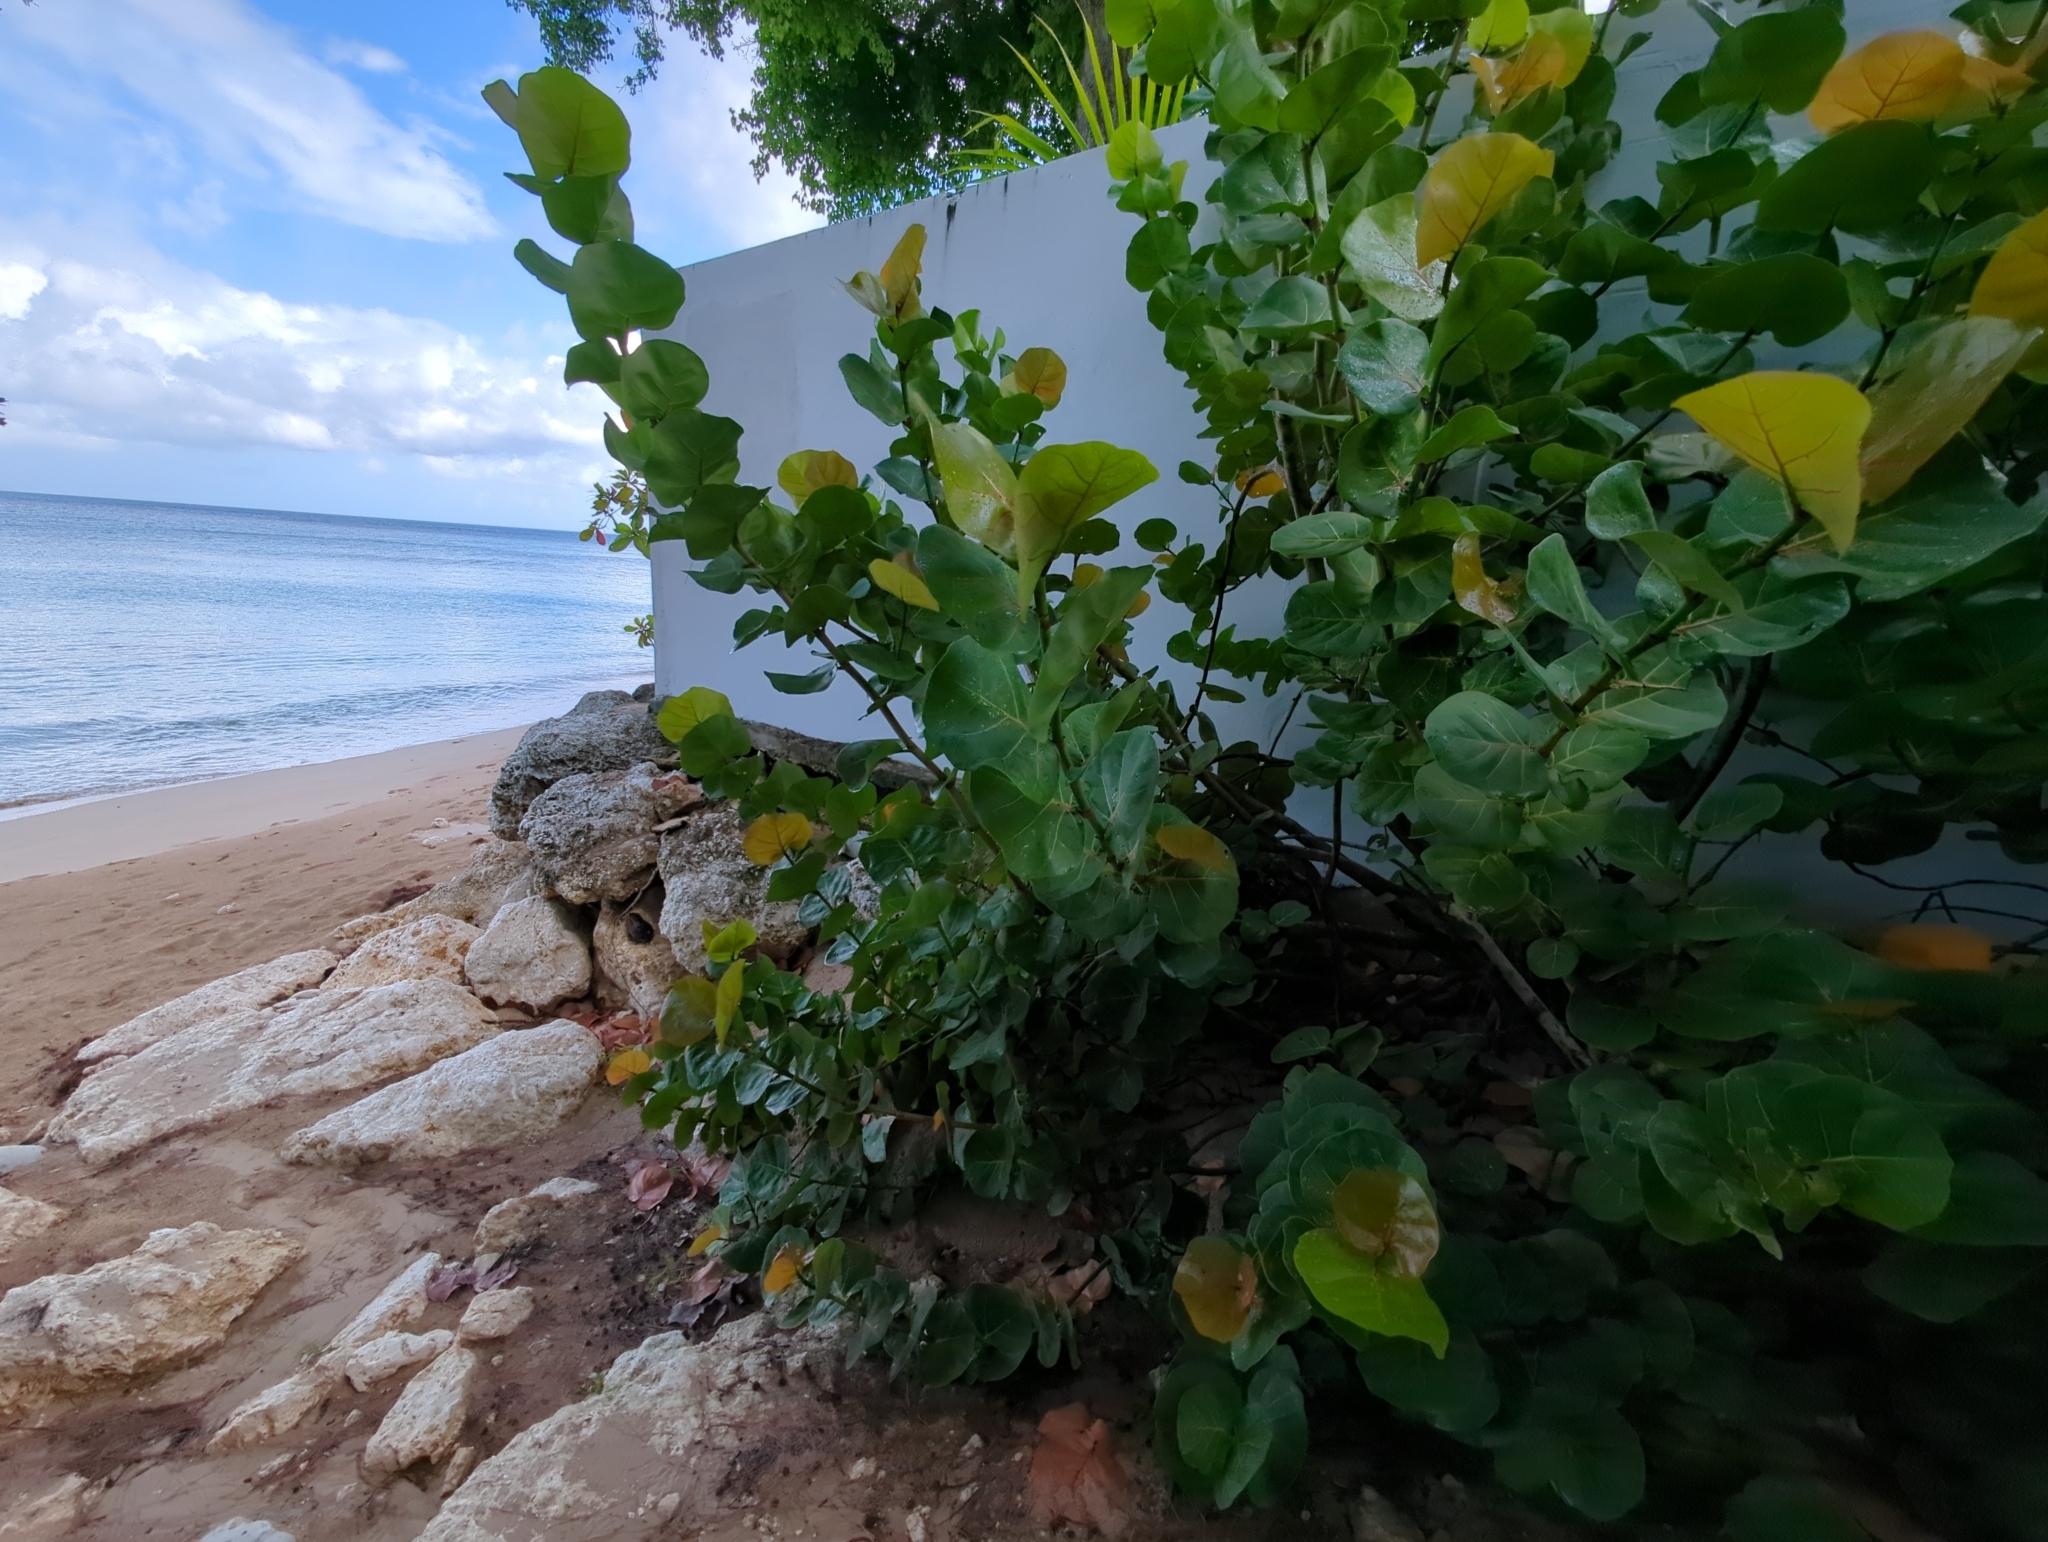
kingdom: Plantae
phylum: Tracheophyta
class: Magnoliopsida
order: Caryophyllales
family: Polygonaceae
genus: Coccoloba
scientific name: Coccoloba uvifera
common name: Seagrape
